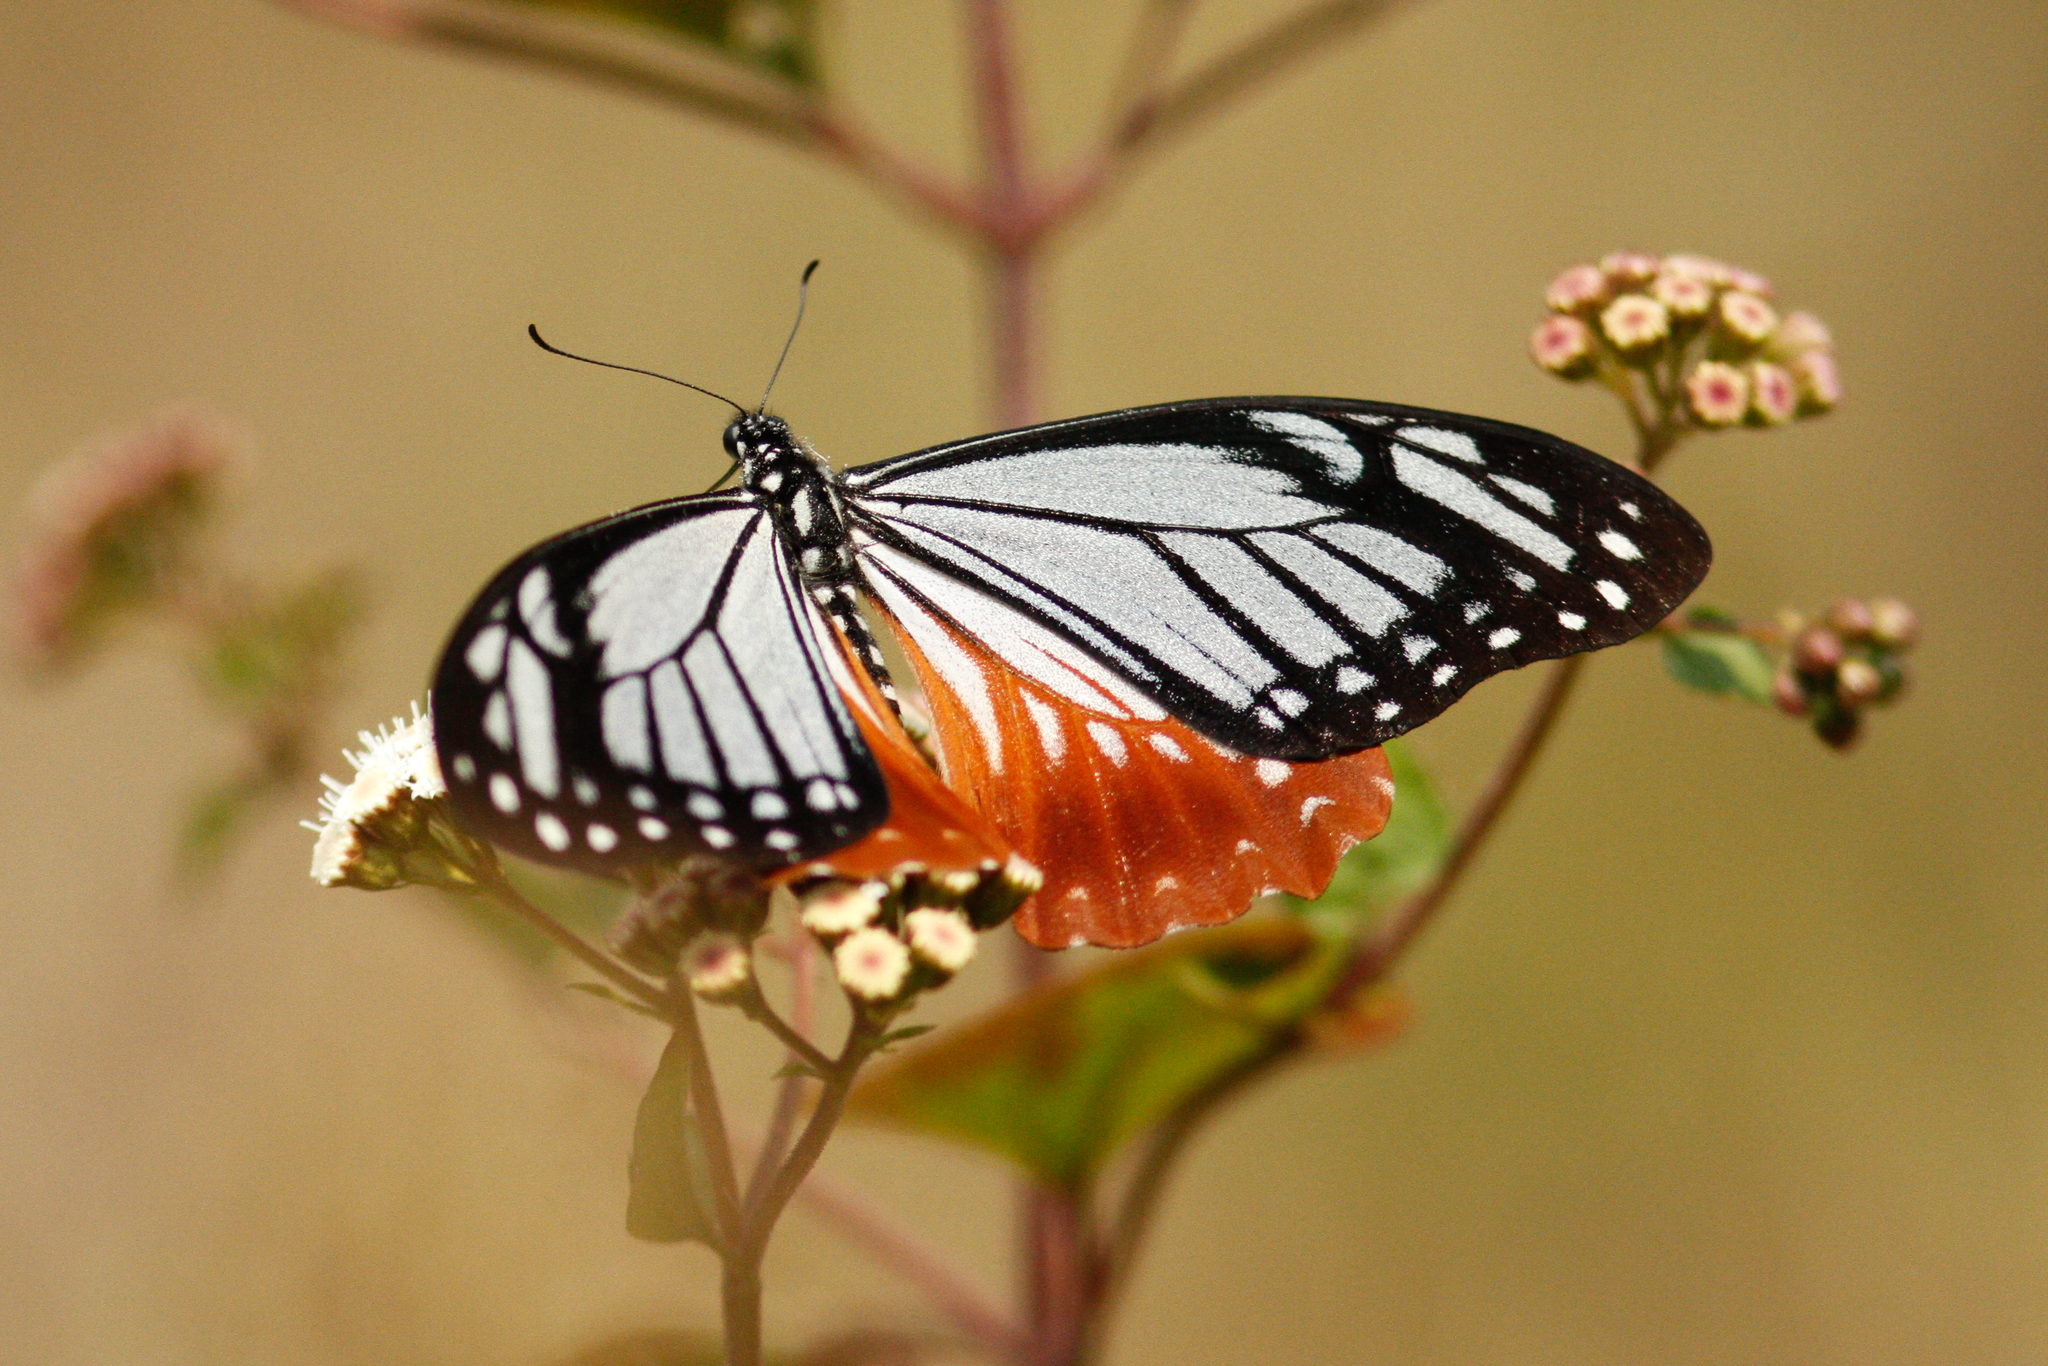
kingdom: Animalia
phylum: Arthropoda
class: Insecta
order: Lepidoptera
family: Lycaenidae
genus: Plebicula
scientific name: Plebicula escheri
